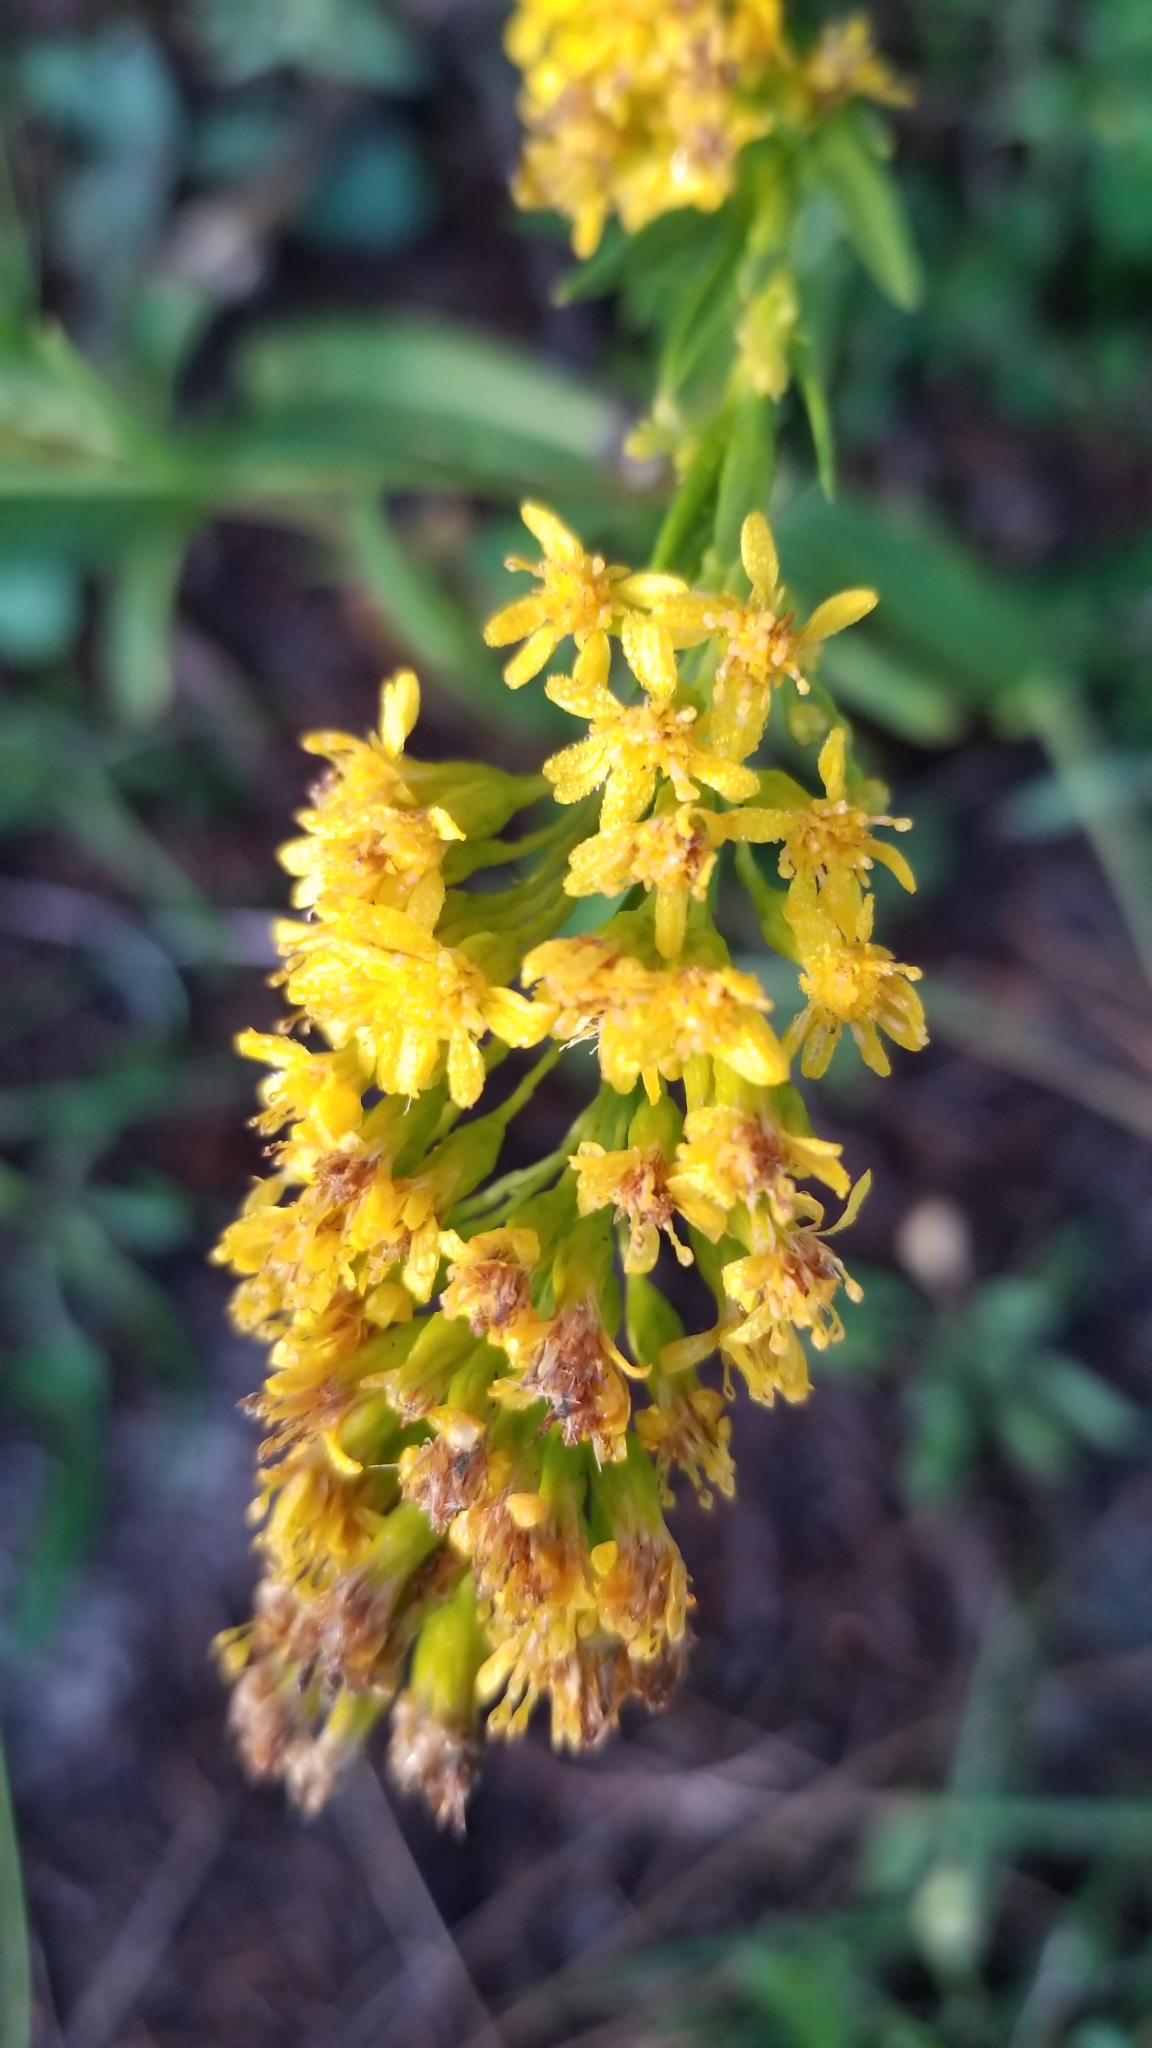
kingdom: Plantae
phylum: Tracheophyta
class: Magnoliopsida
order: Asterales
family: Asteraceae
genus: Solidago
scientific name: Solidago sempervirens
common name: Salt-marsh goldenrod
